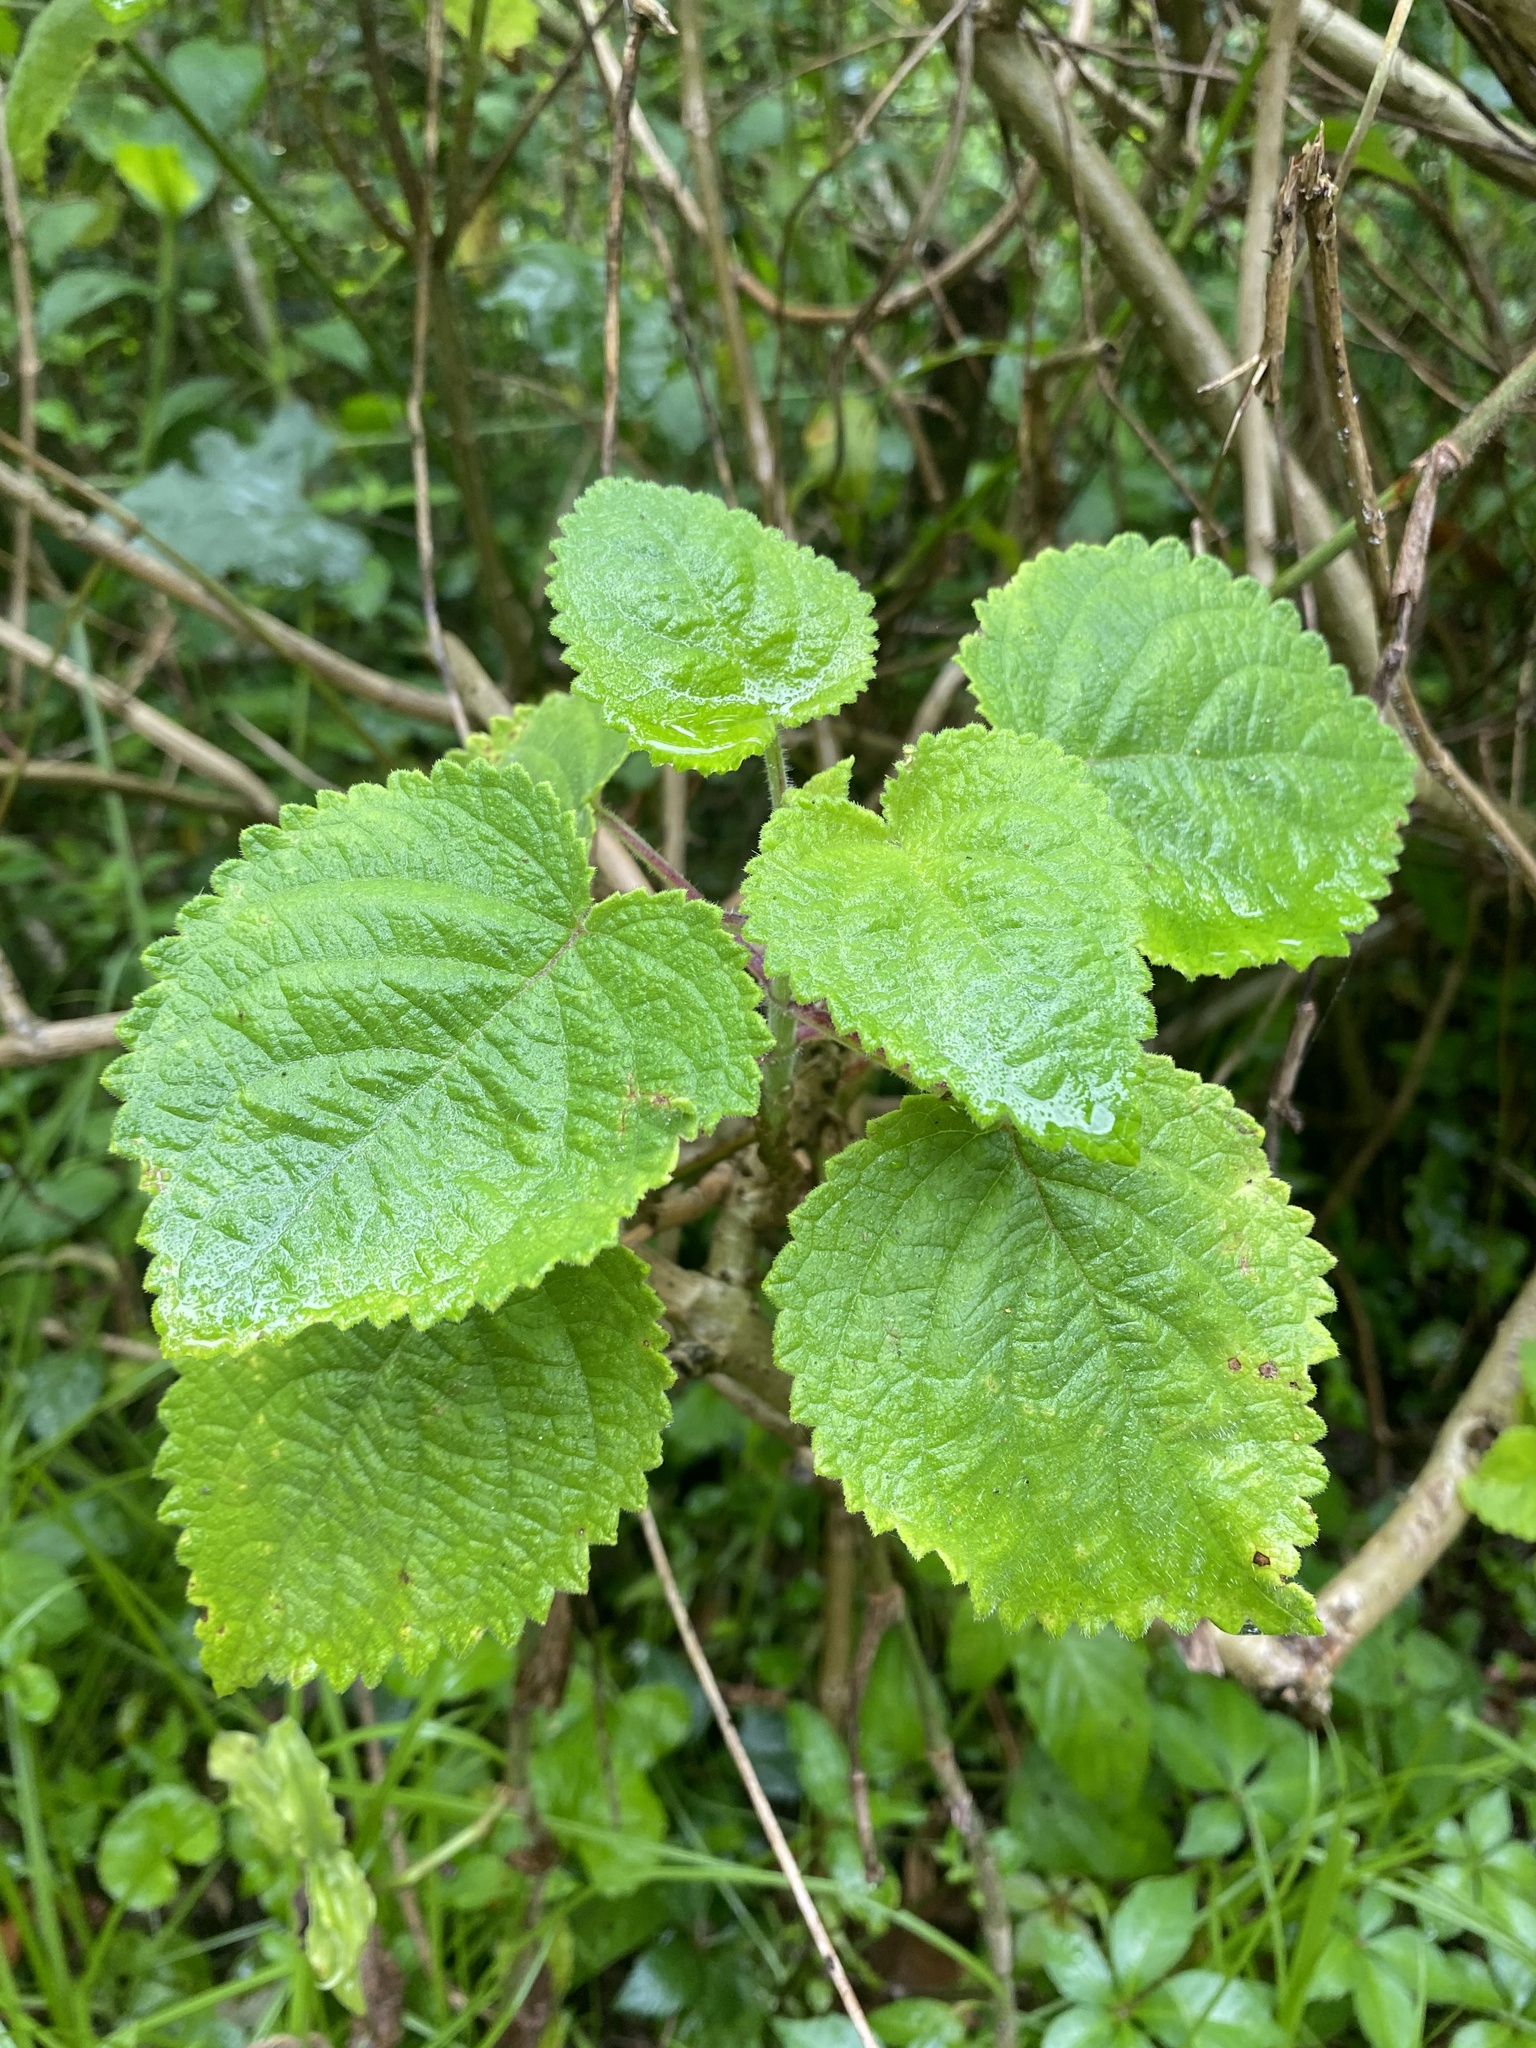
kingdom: Plantae
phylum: Tracheophyta
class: Magnoliopsida
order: Lamiales
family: Lamiaceae
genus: Tetradenia
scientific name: Tetradenia riparia
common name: Gingerbush
